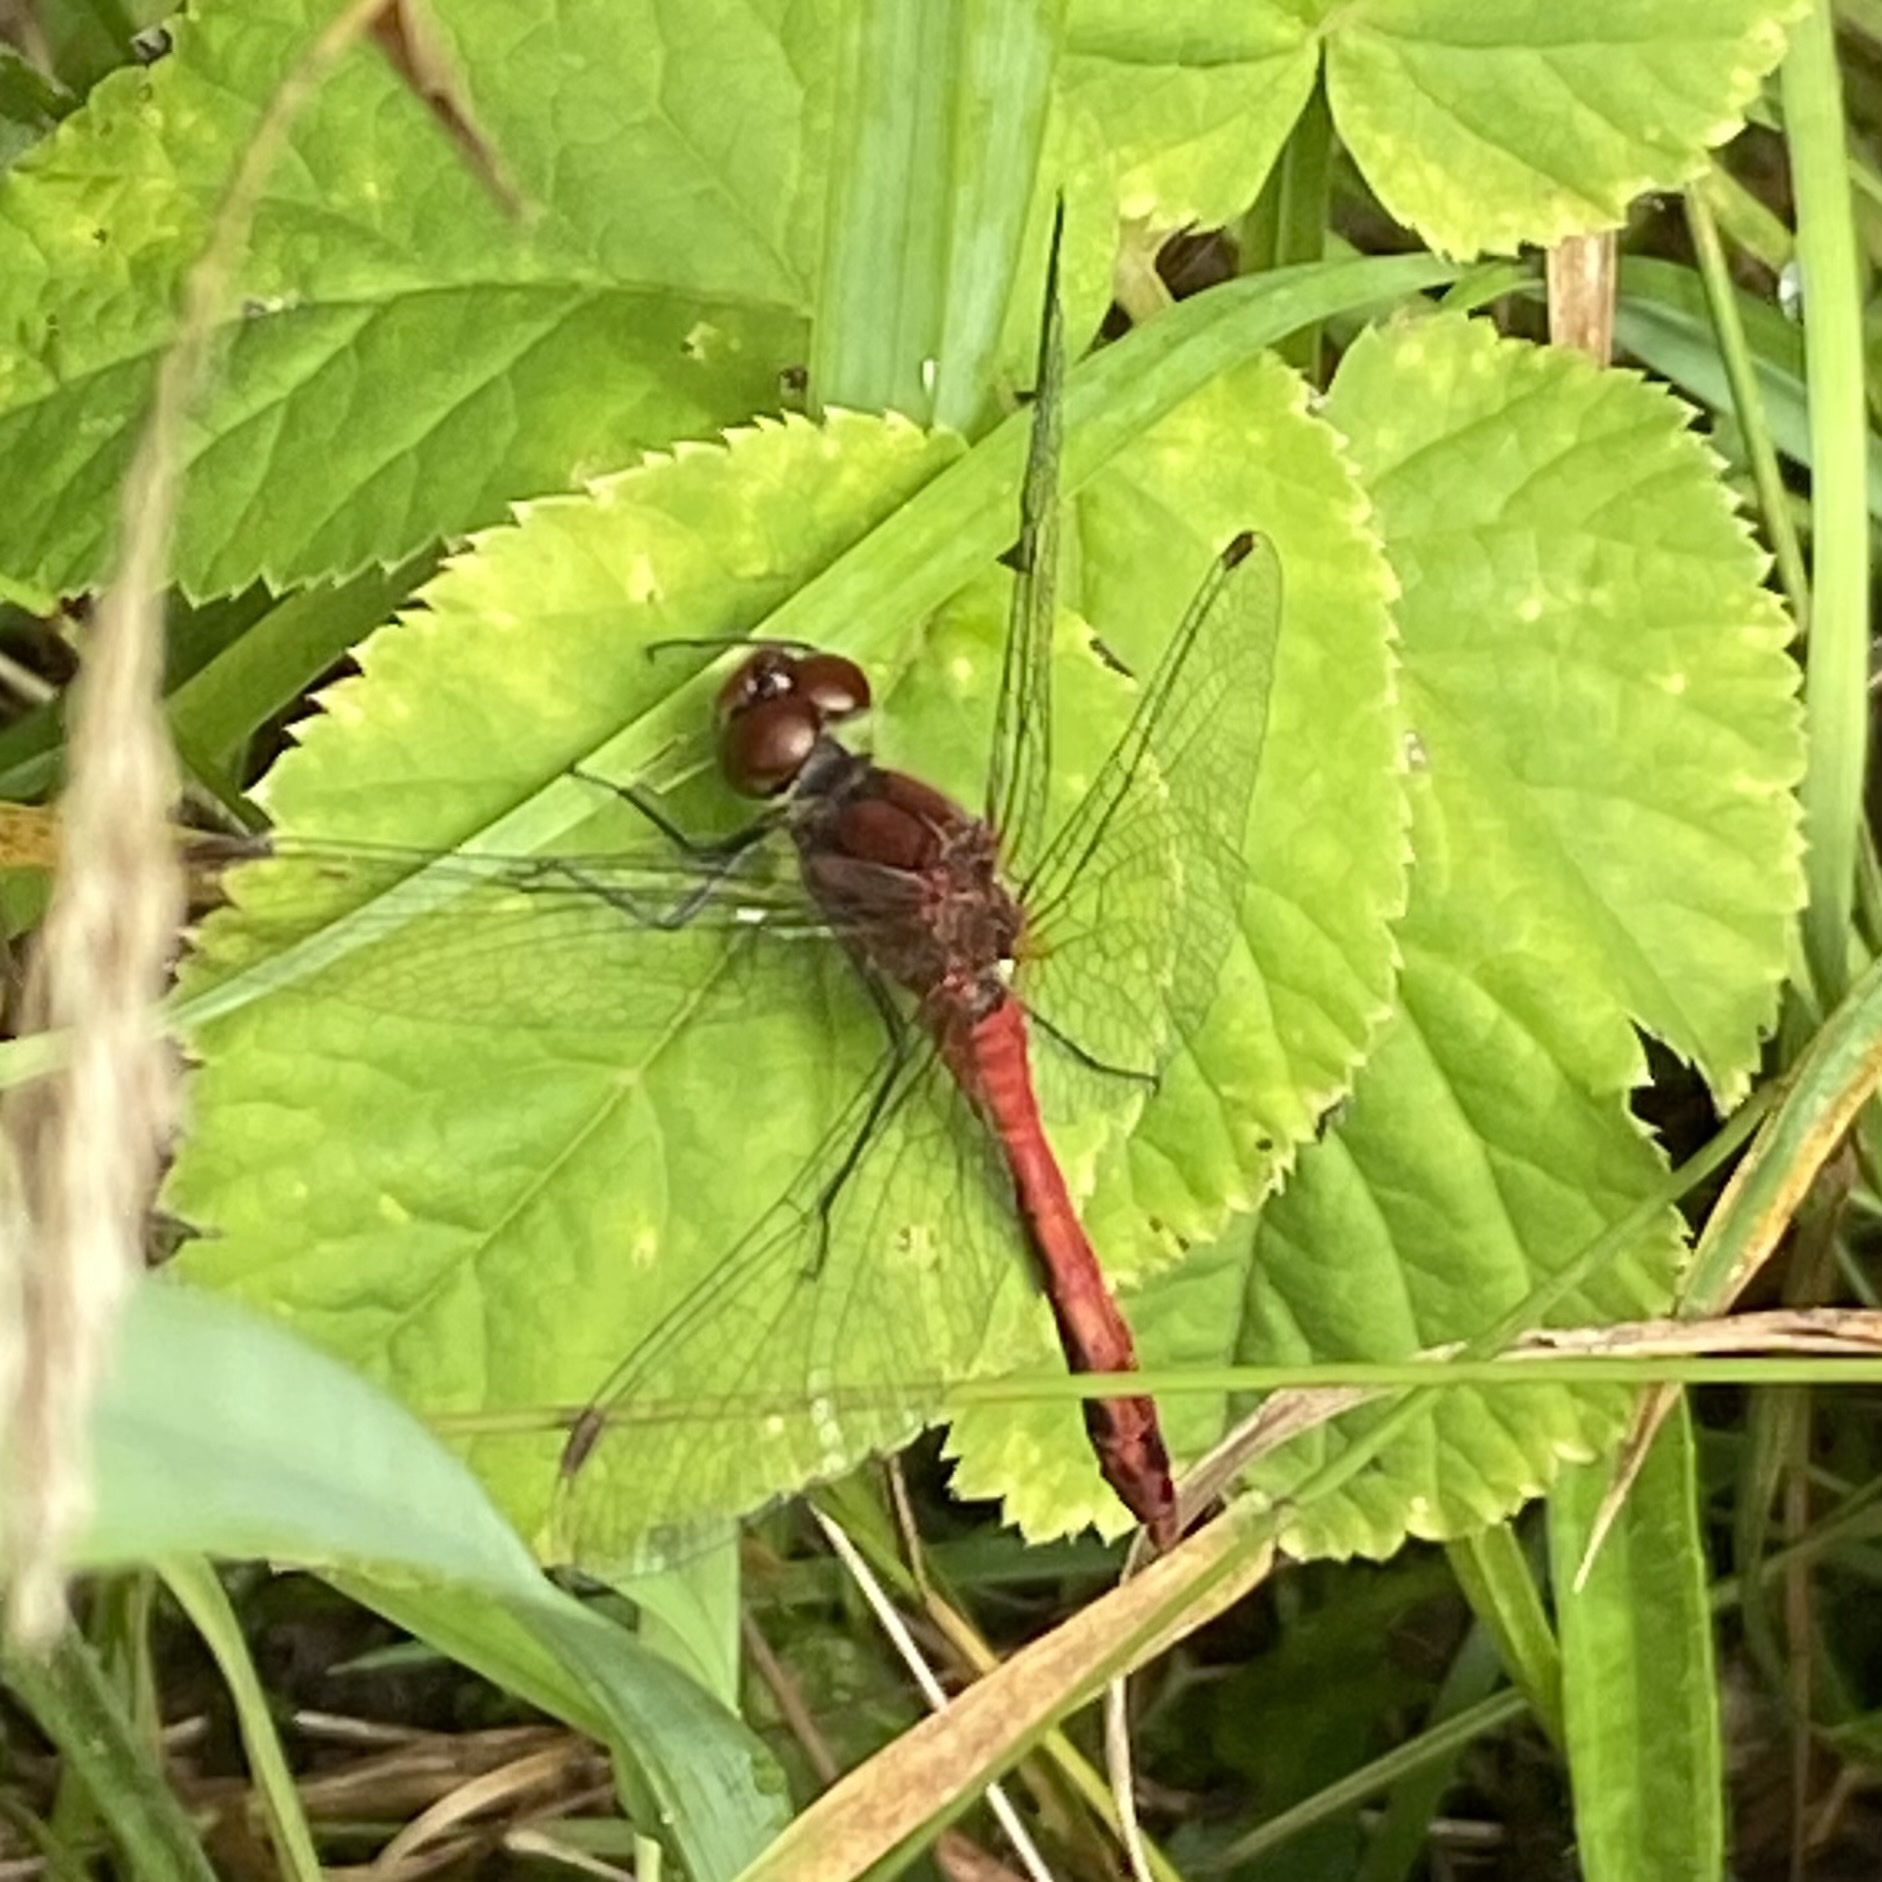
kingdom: Animalia
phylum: Arthropoda
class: Insecta
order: Odonata
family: Libellulidae
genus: Sympetrum
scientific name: Sympetrum sanguineum
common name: Ruddy darter
